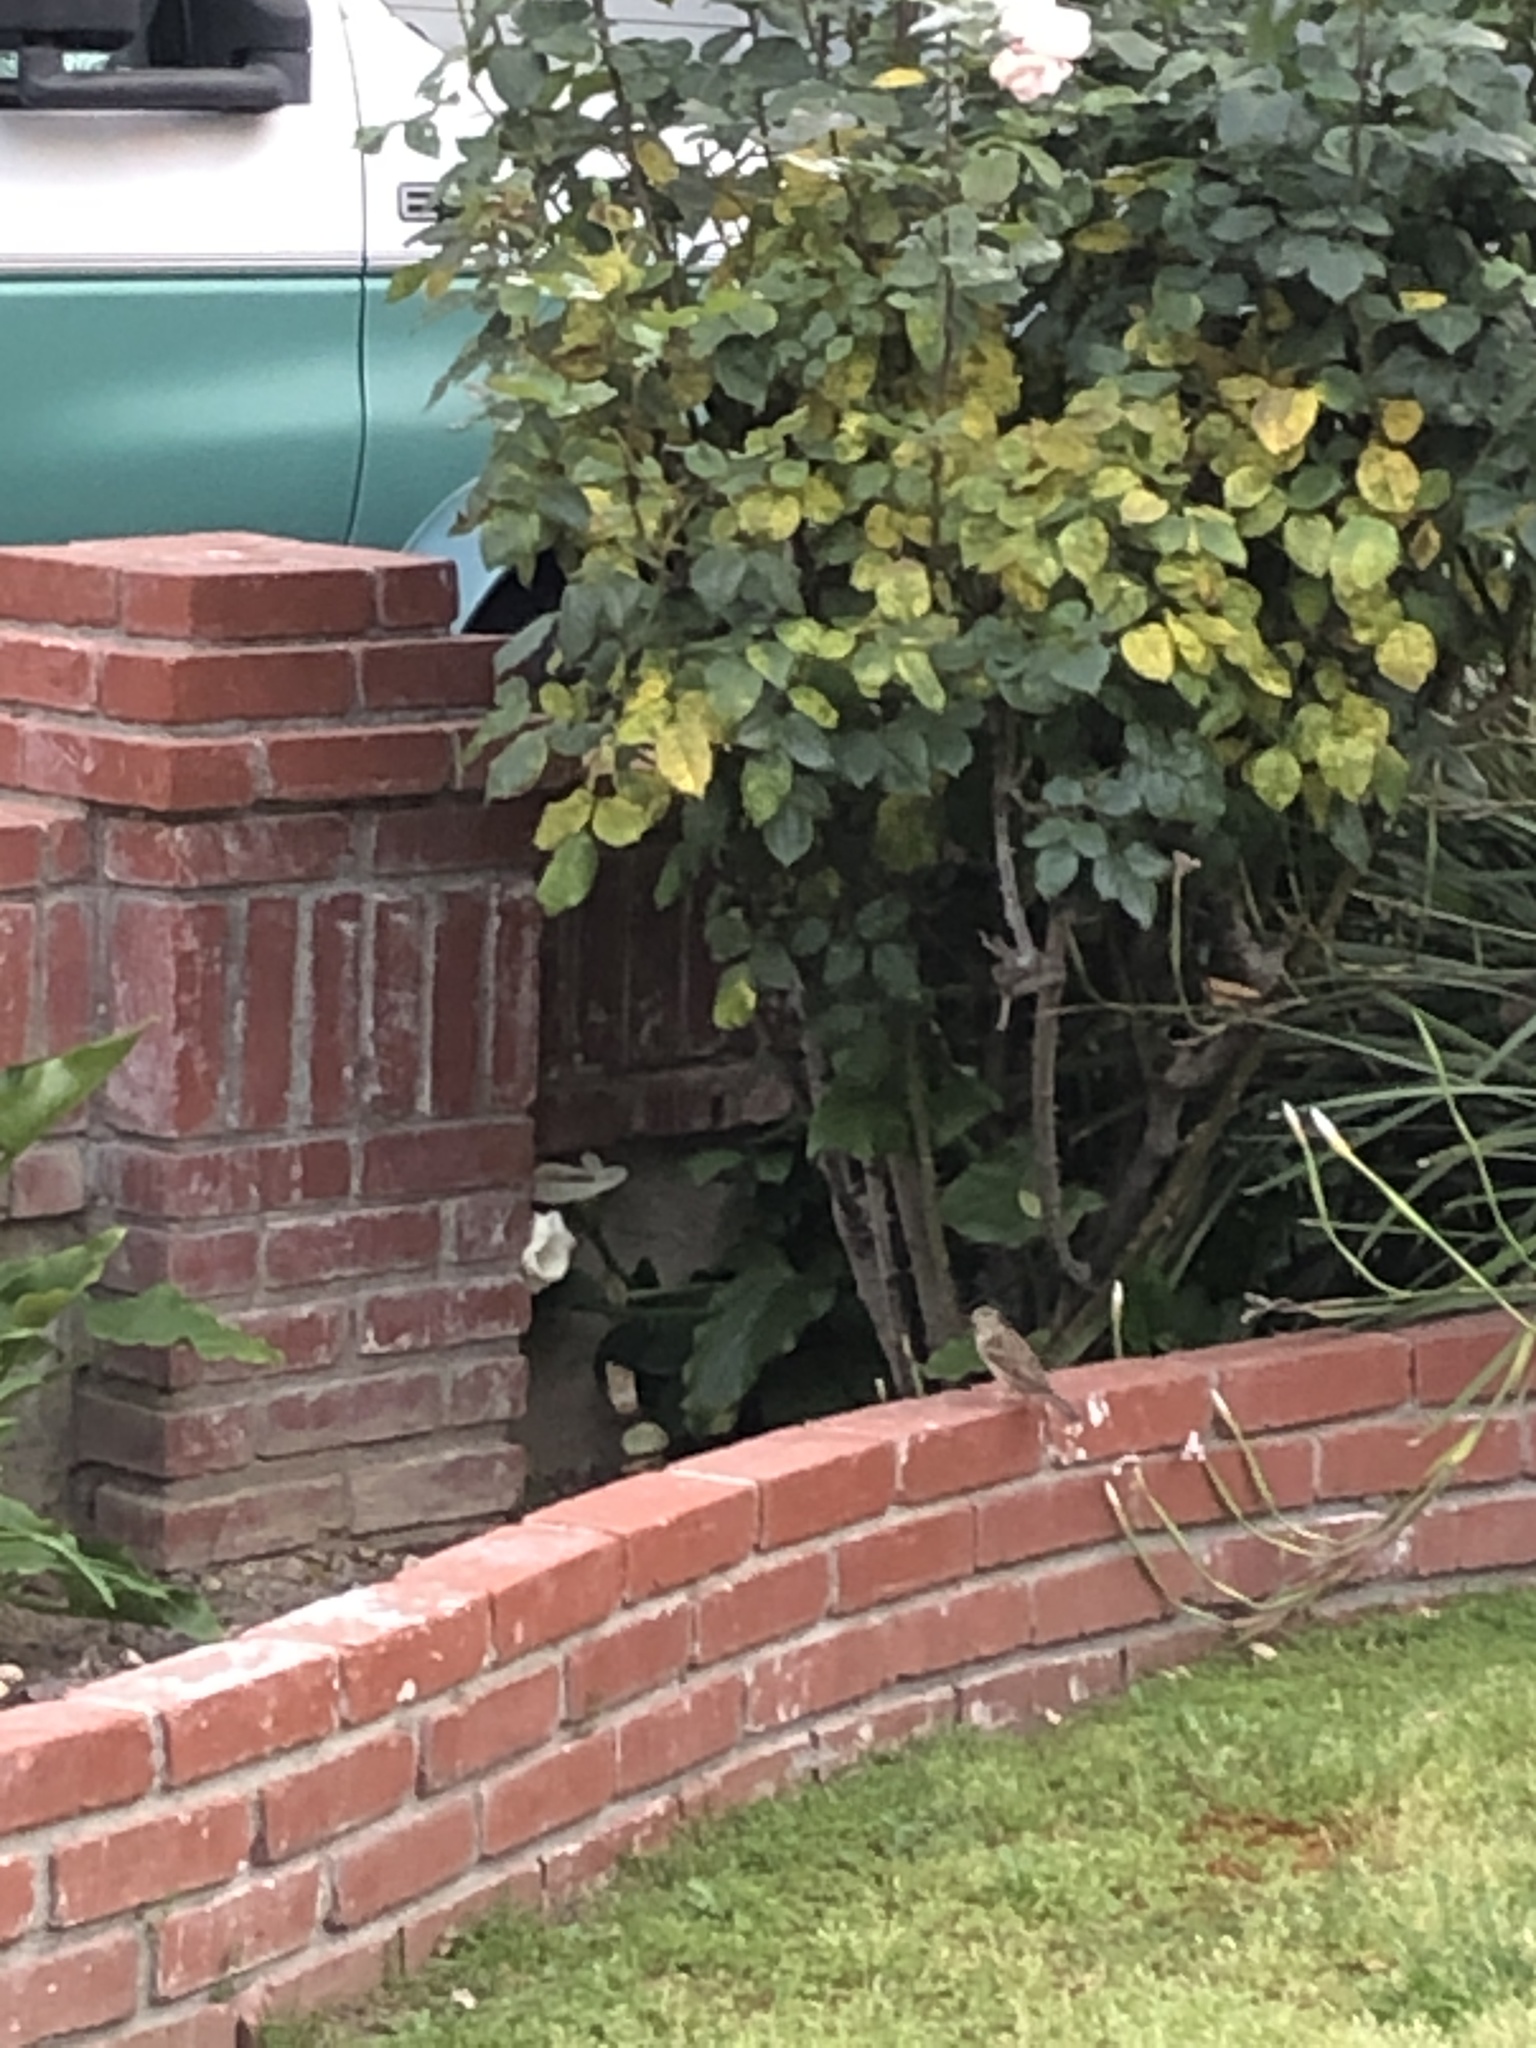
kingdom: Animalia
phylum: Chordata
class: Aves
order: Passeriformes
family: Passeridae
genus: Passer
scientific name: Passer domesticus
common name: House sparrow
